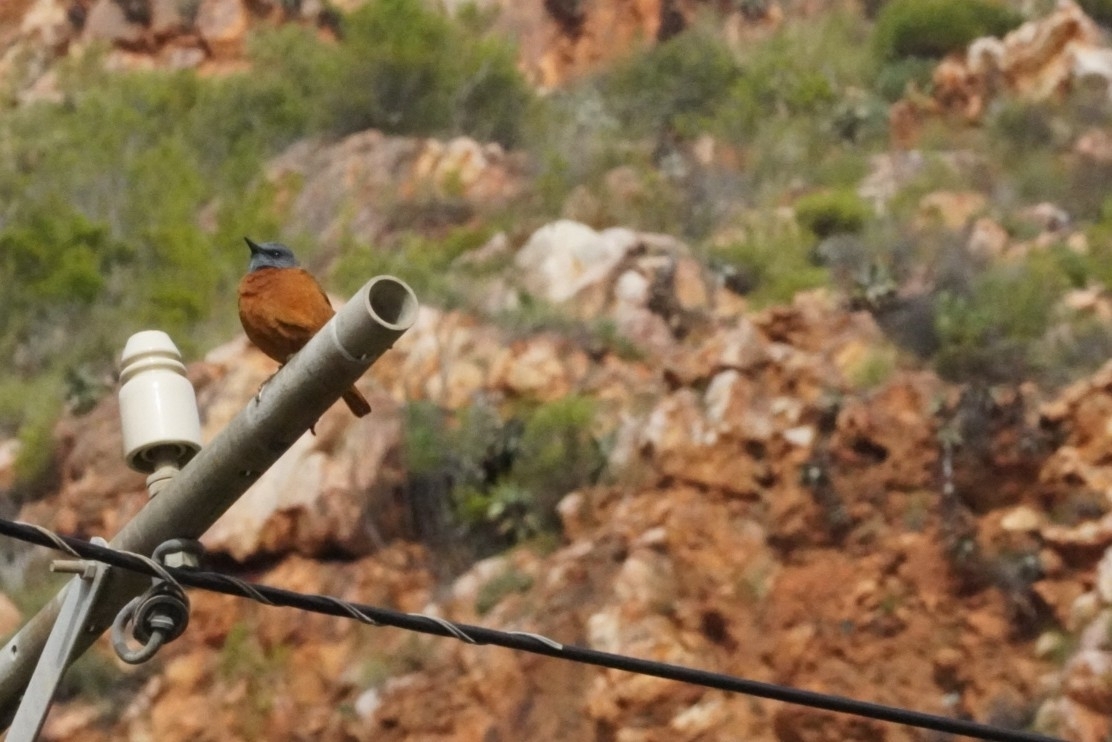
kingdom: Animalia
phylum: Chordata
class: Aves
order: Passeriformes
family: Muscicapidae
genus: Monticola
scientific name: Monticola rupestris
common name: Cape rock thrush
